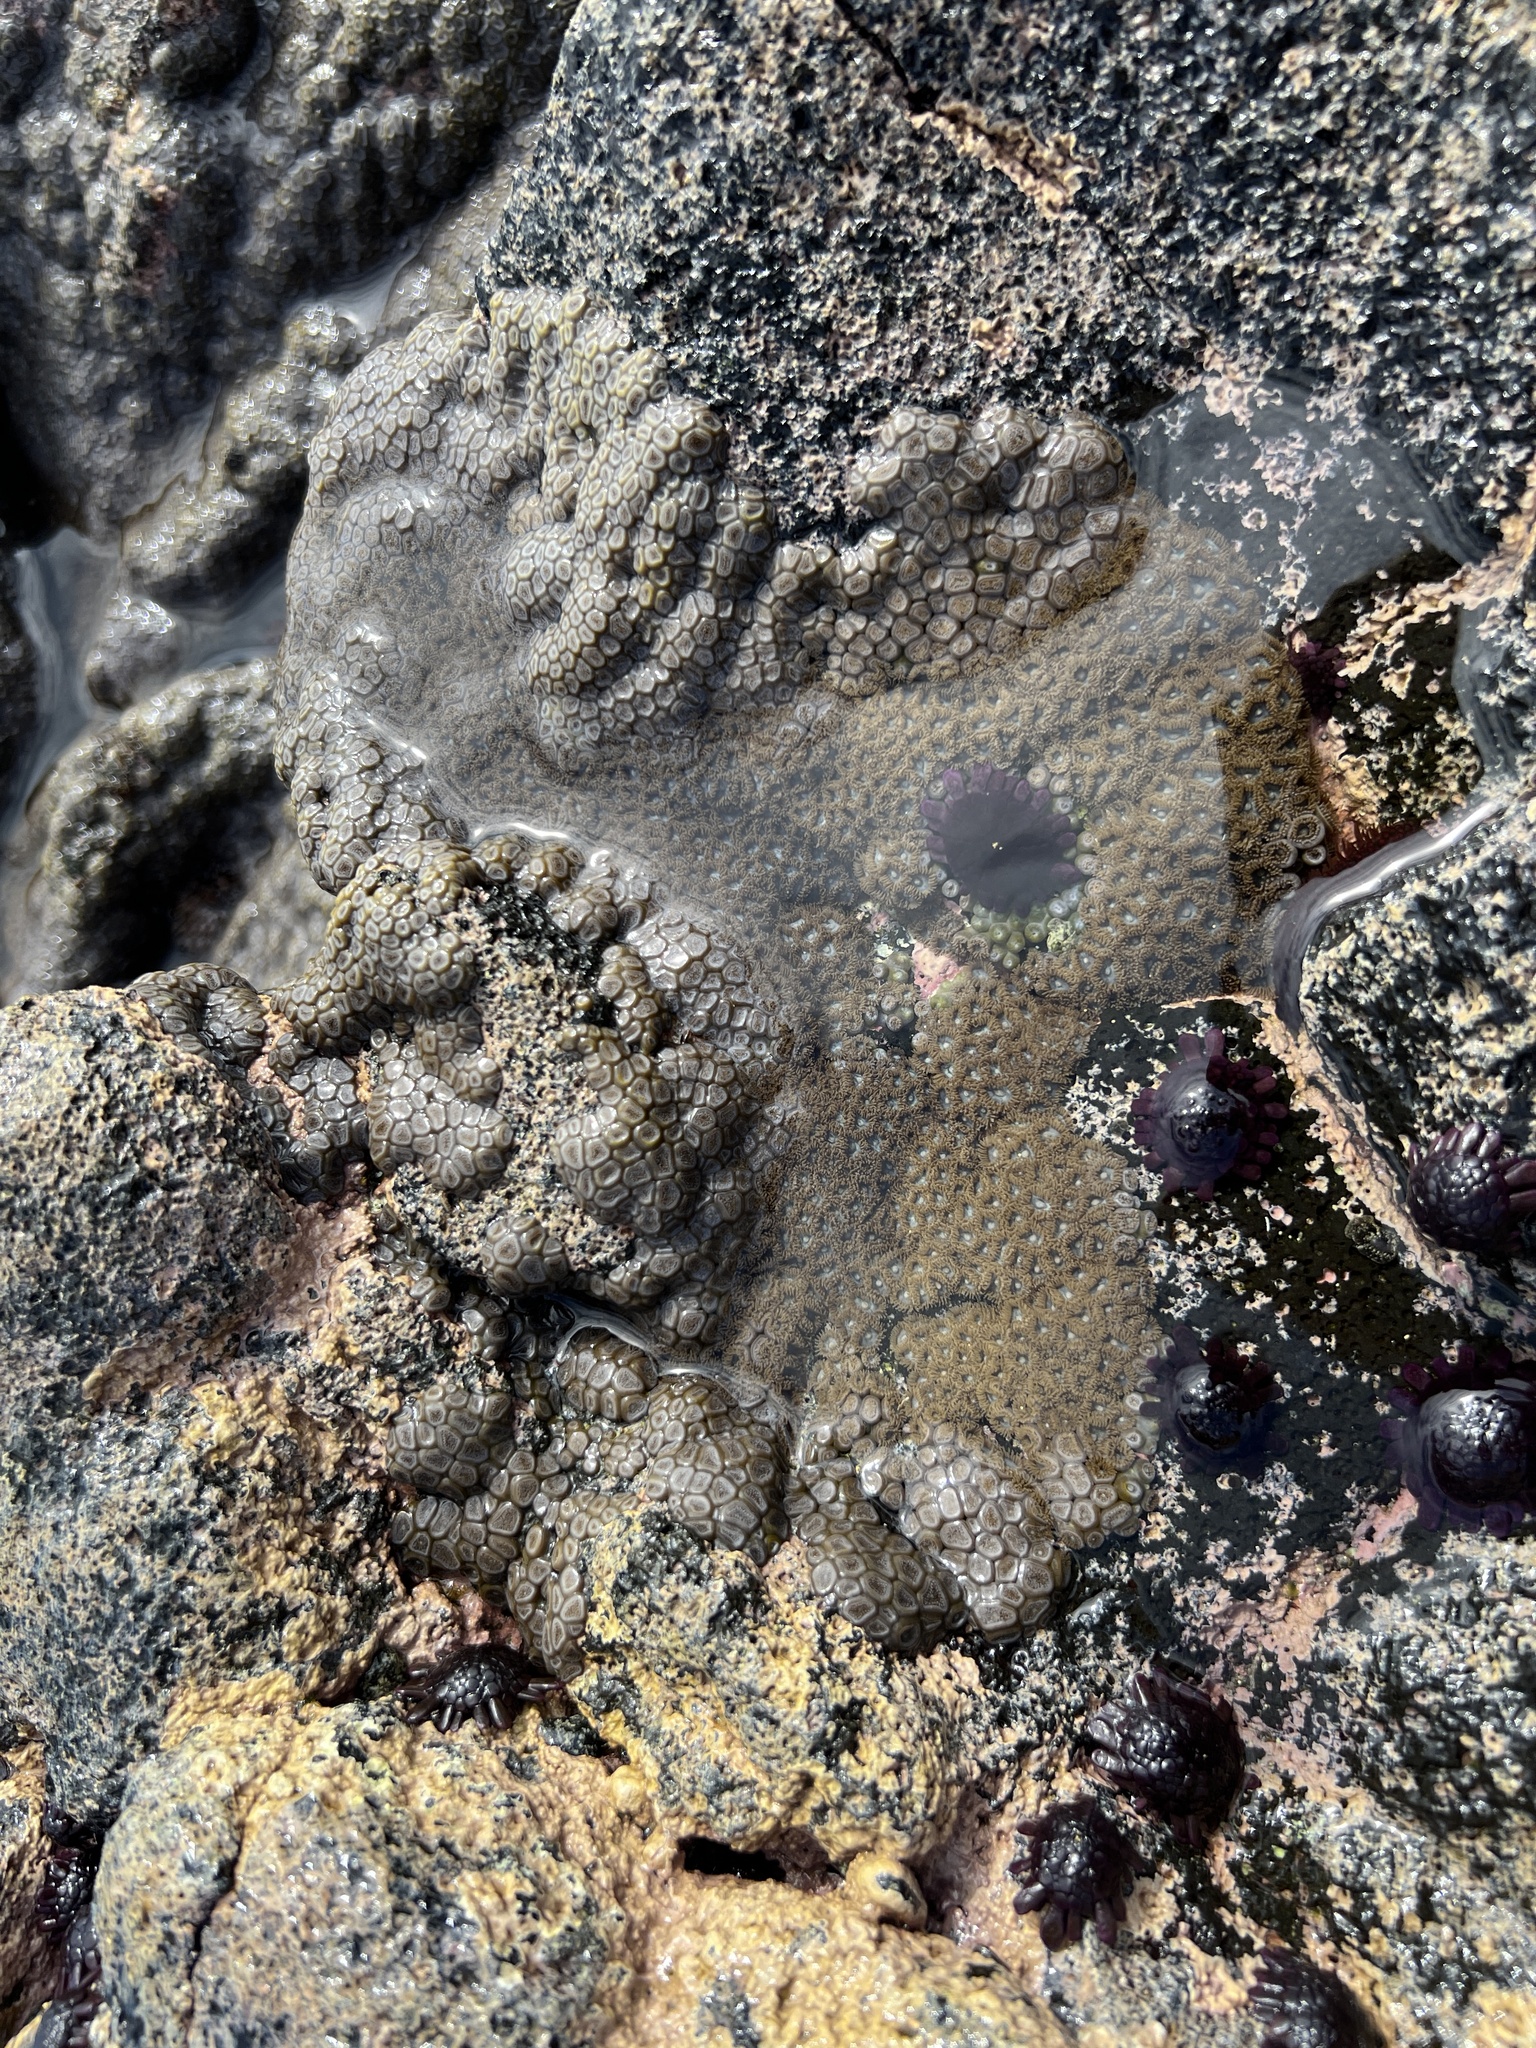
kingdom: Animalia
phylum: Cnidaria
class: Anthozoa
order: Zoantharia
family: Zoanthidae
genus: Zoanthus
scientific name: Zoanthus kuroshio
